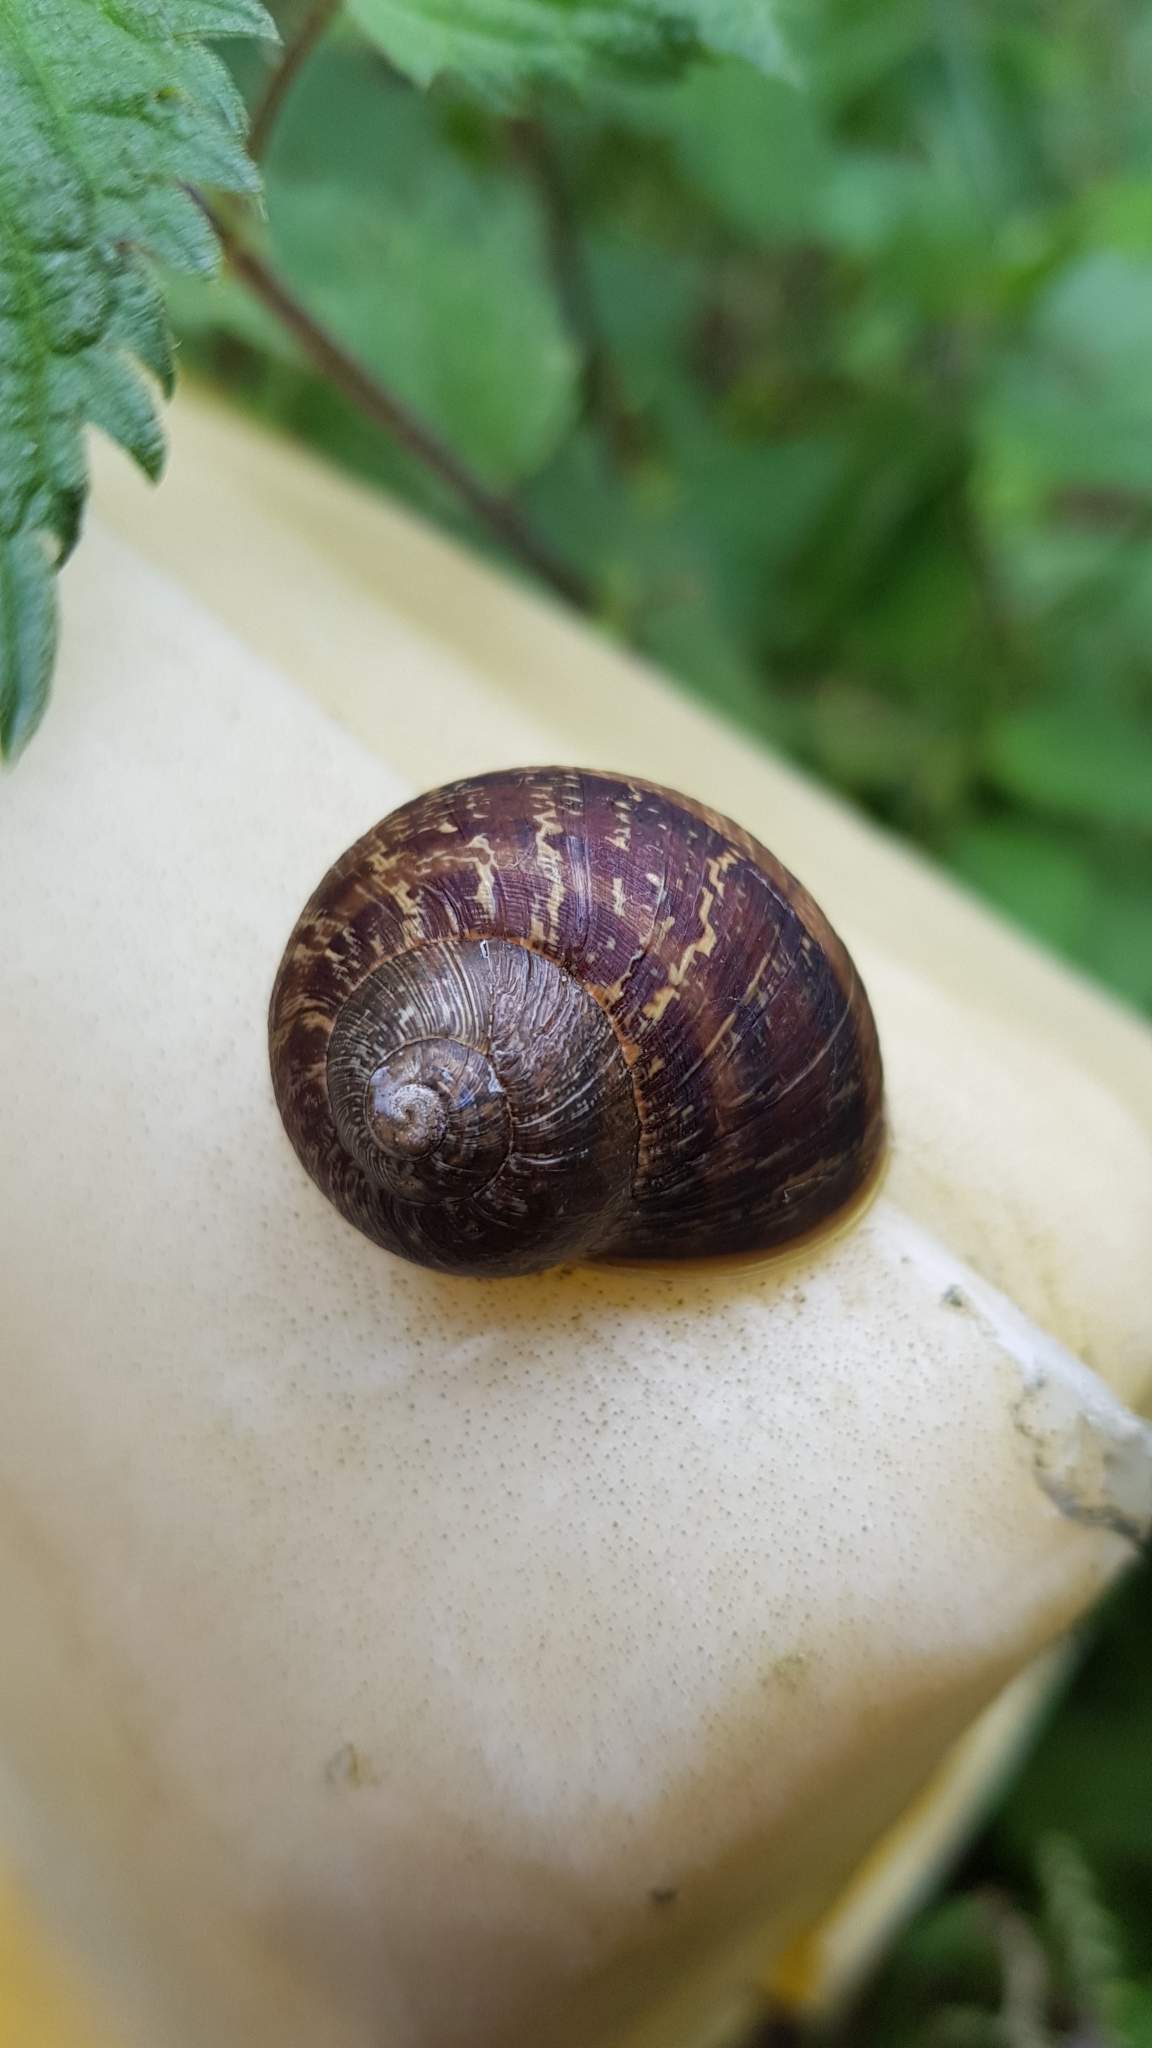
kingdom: Animalia
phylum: Mollusca
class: Gastropoda
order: Stylommatophora
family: Helicidae
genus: Cornu
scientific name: Cornu aspersum
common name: Brown garden snail
